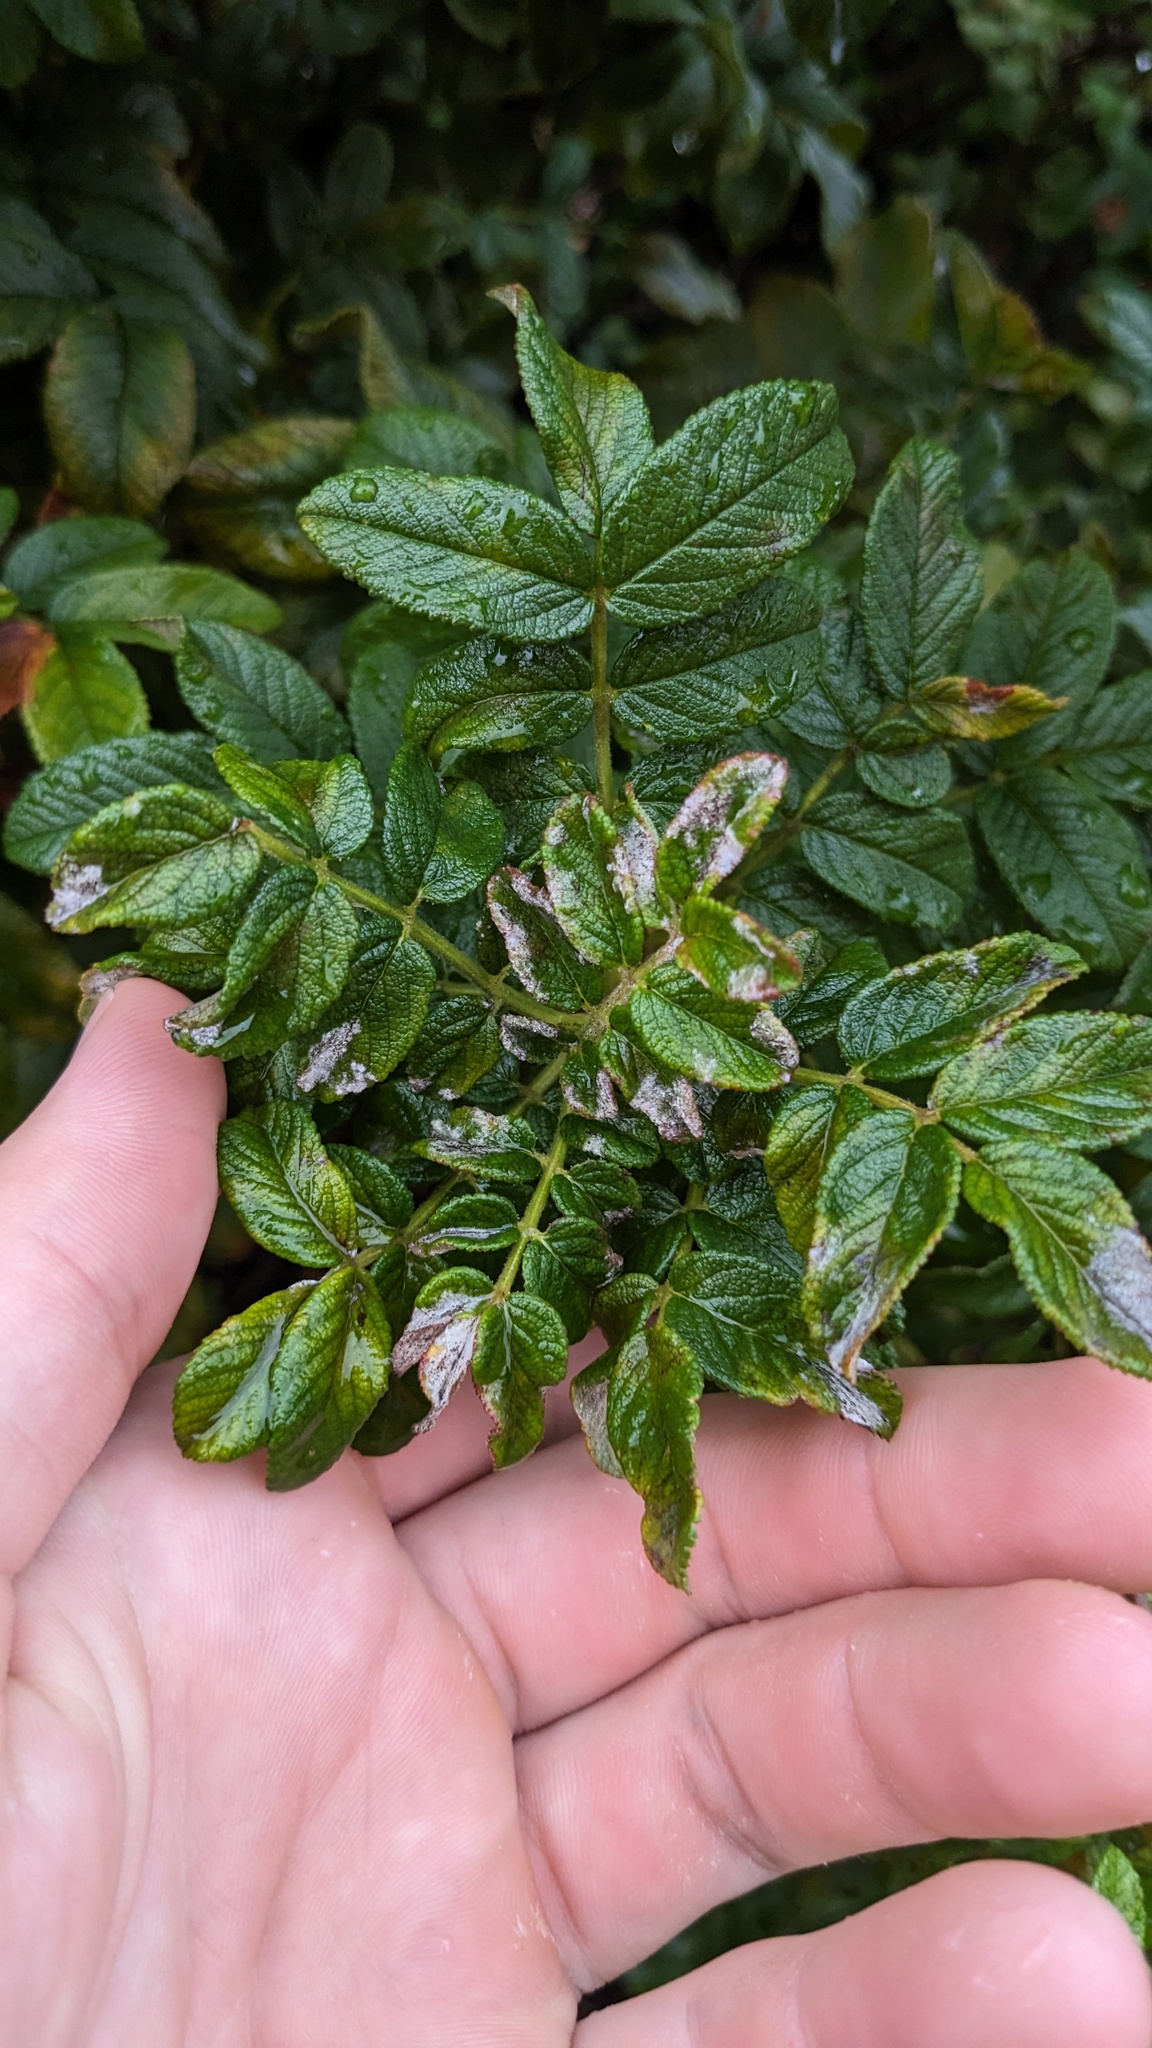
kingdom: Fungi
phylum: Ascomycota
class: Leotiomycetes
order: Helotiales
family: Erysiphaceae
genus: Podosphaera
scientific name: Podosphaera pannosa
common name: Rose mildew
